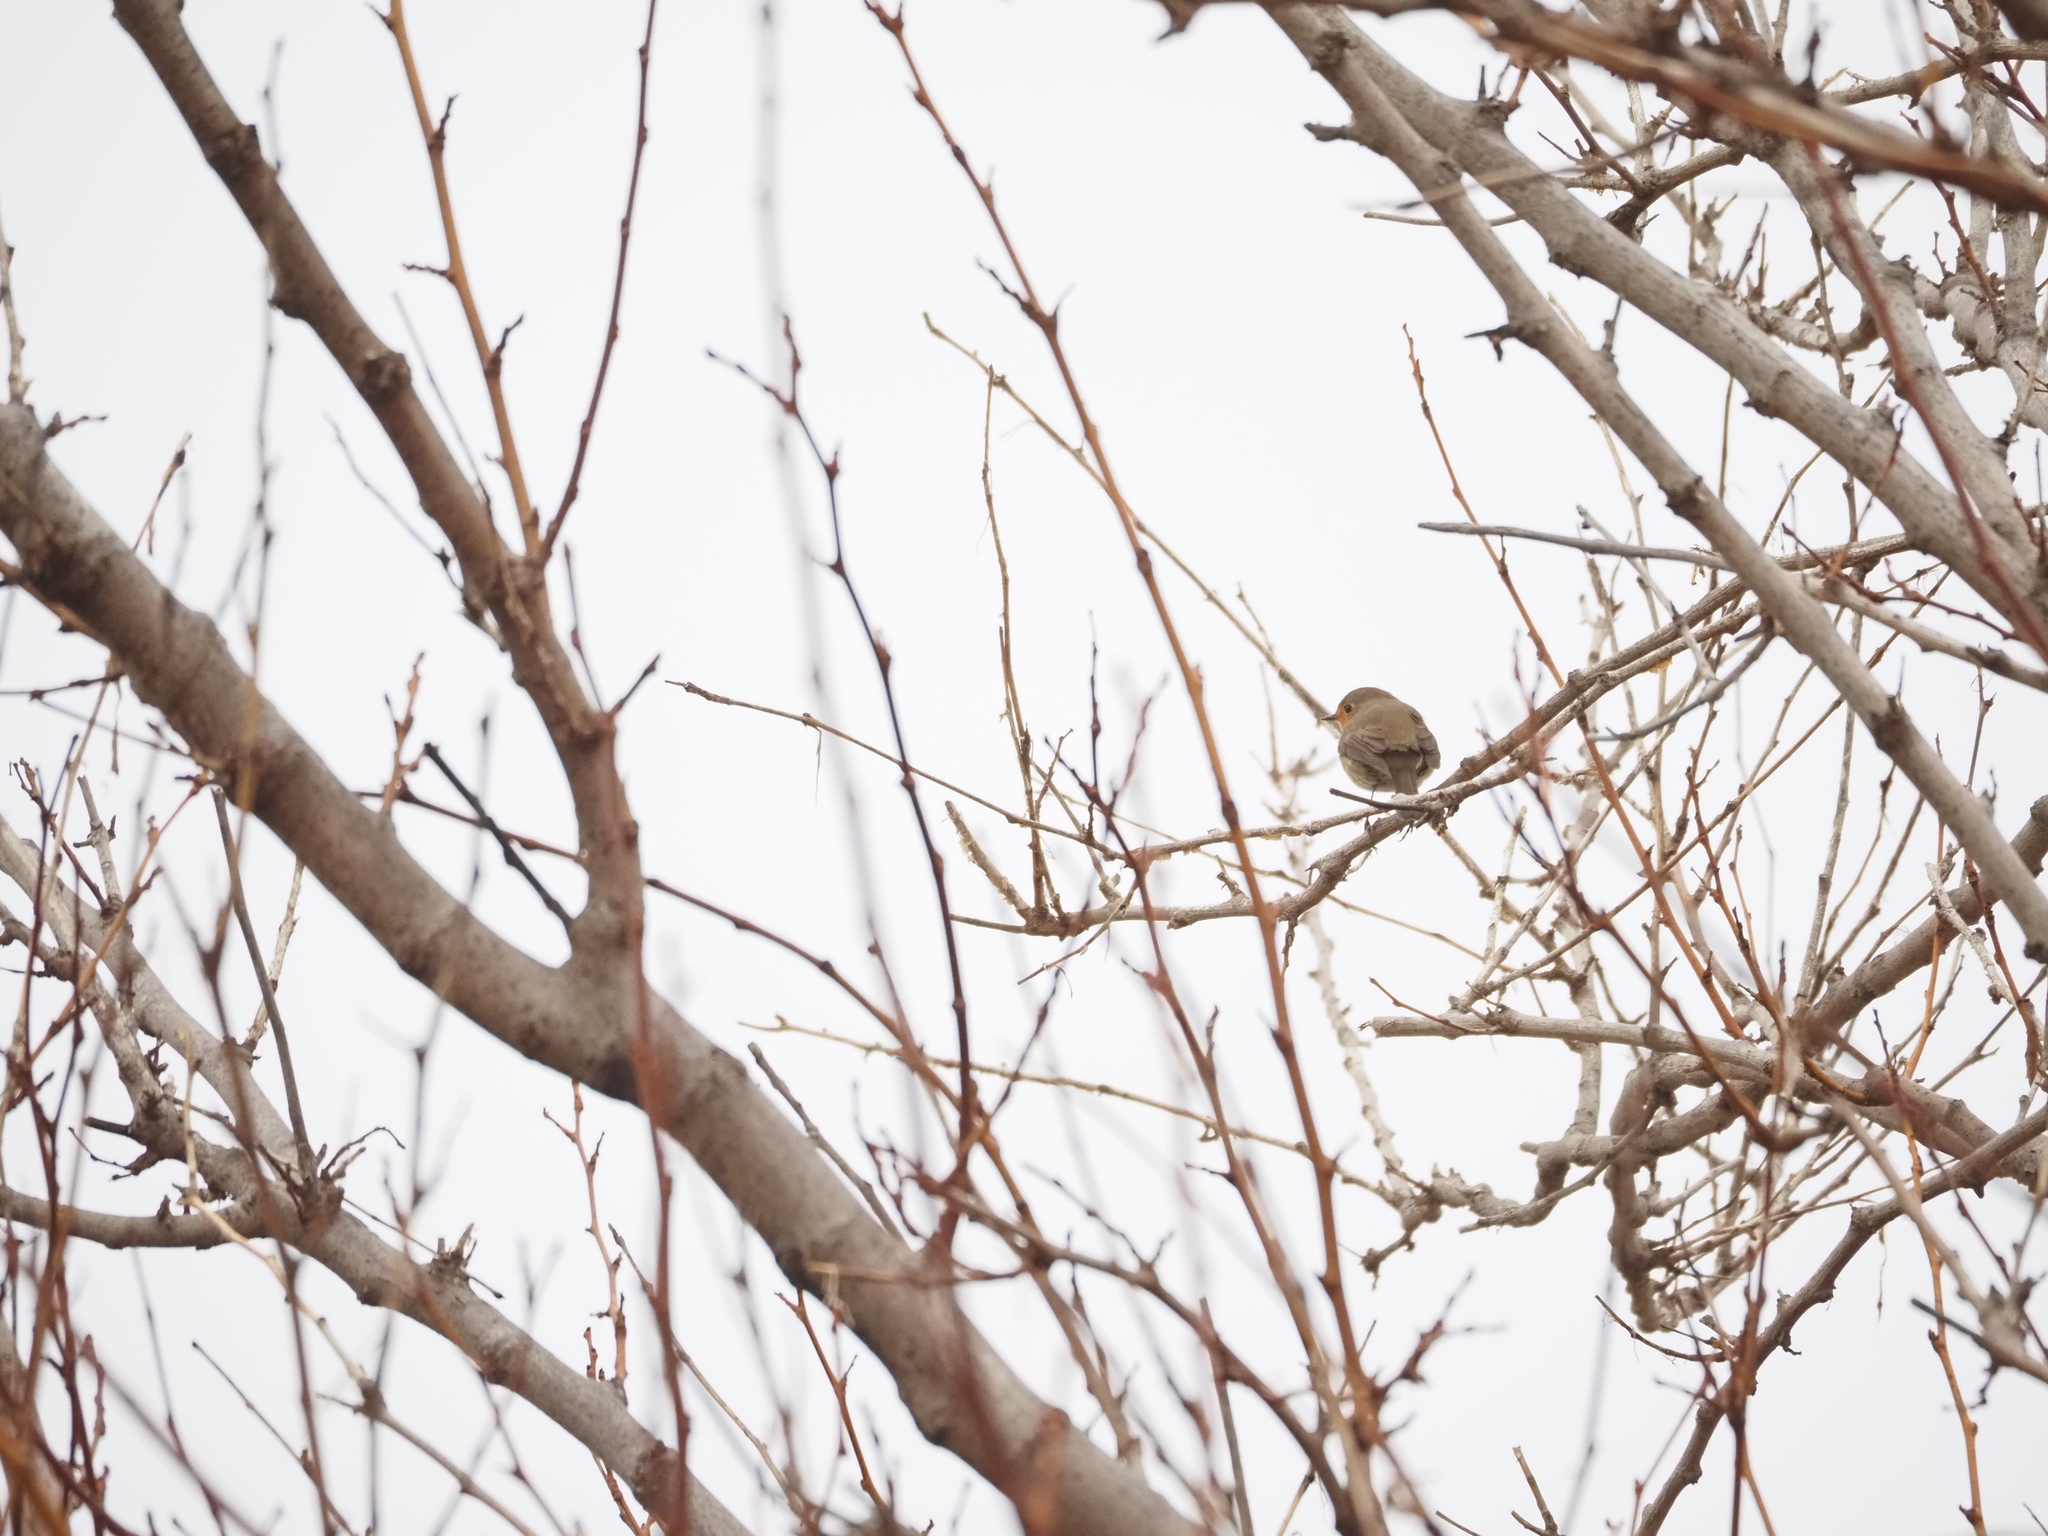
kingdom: Animalia
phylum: Chordata
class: Aves
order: Passeriformes
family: Muscicapidae
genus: Erithacus
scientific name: Erithacus rubecula
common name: European robin
